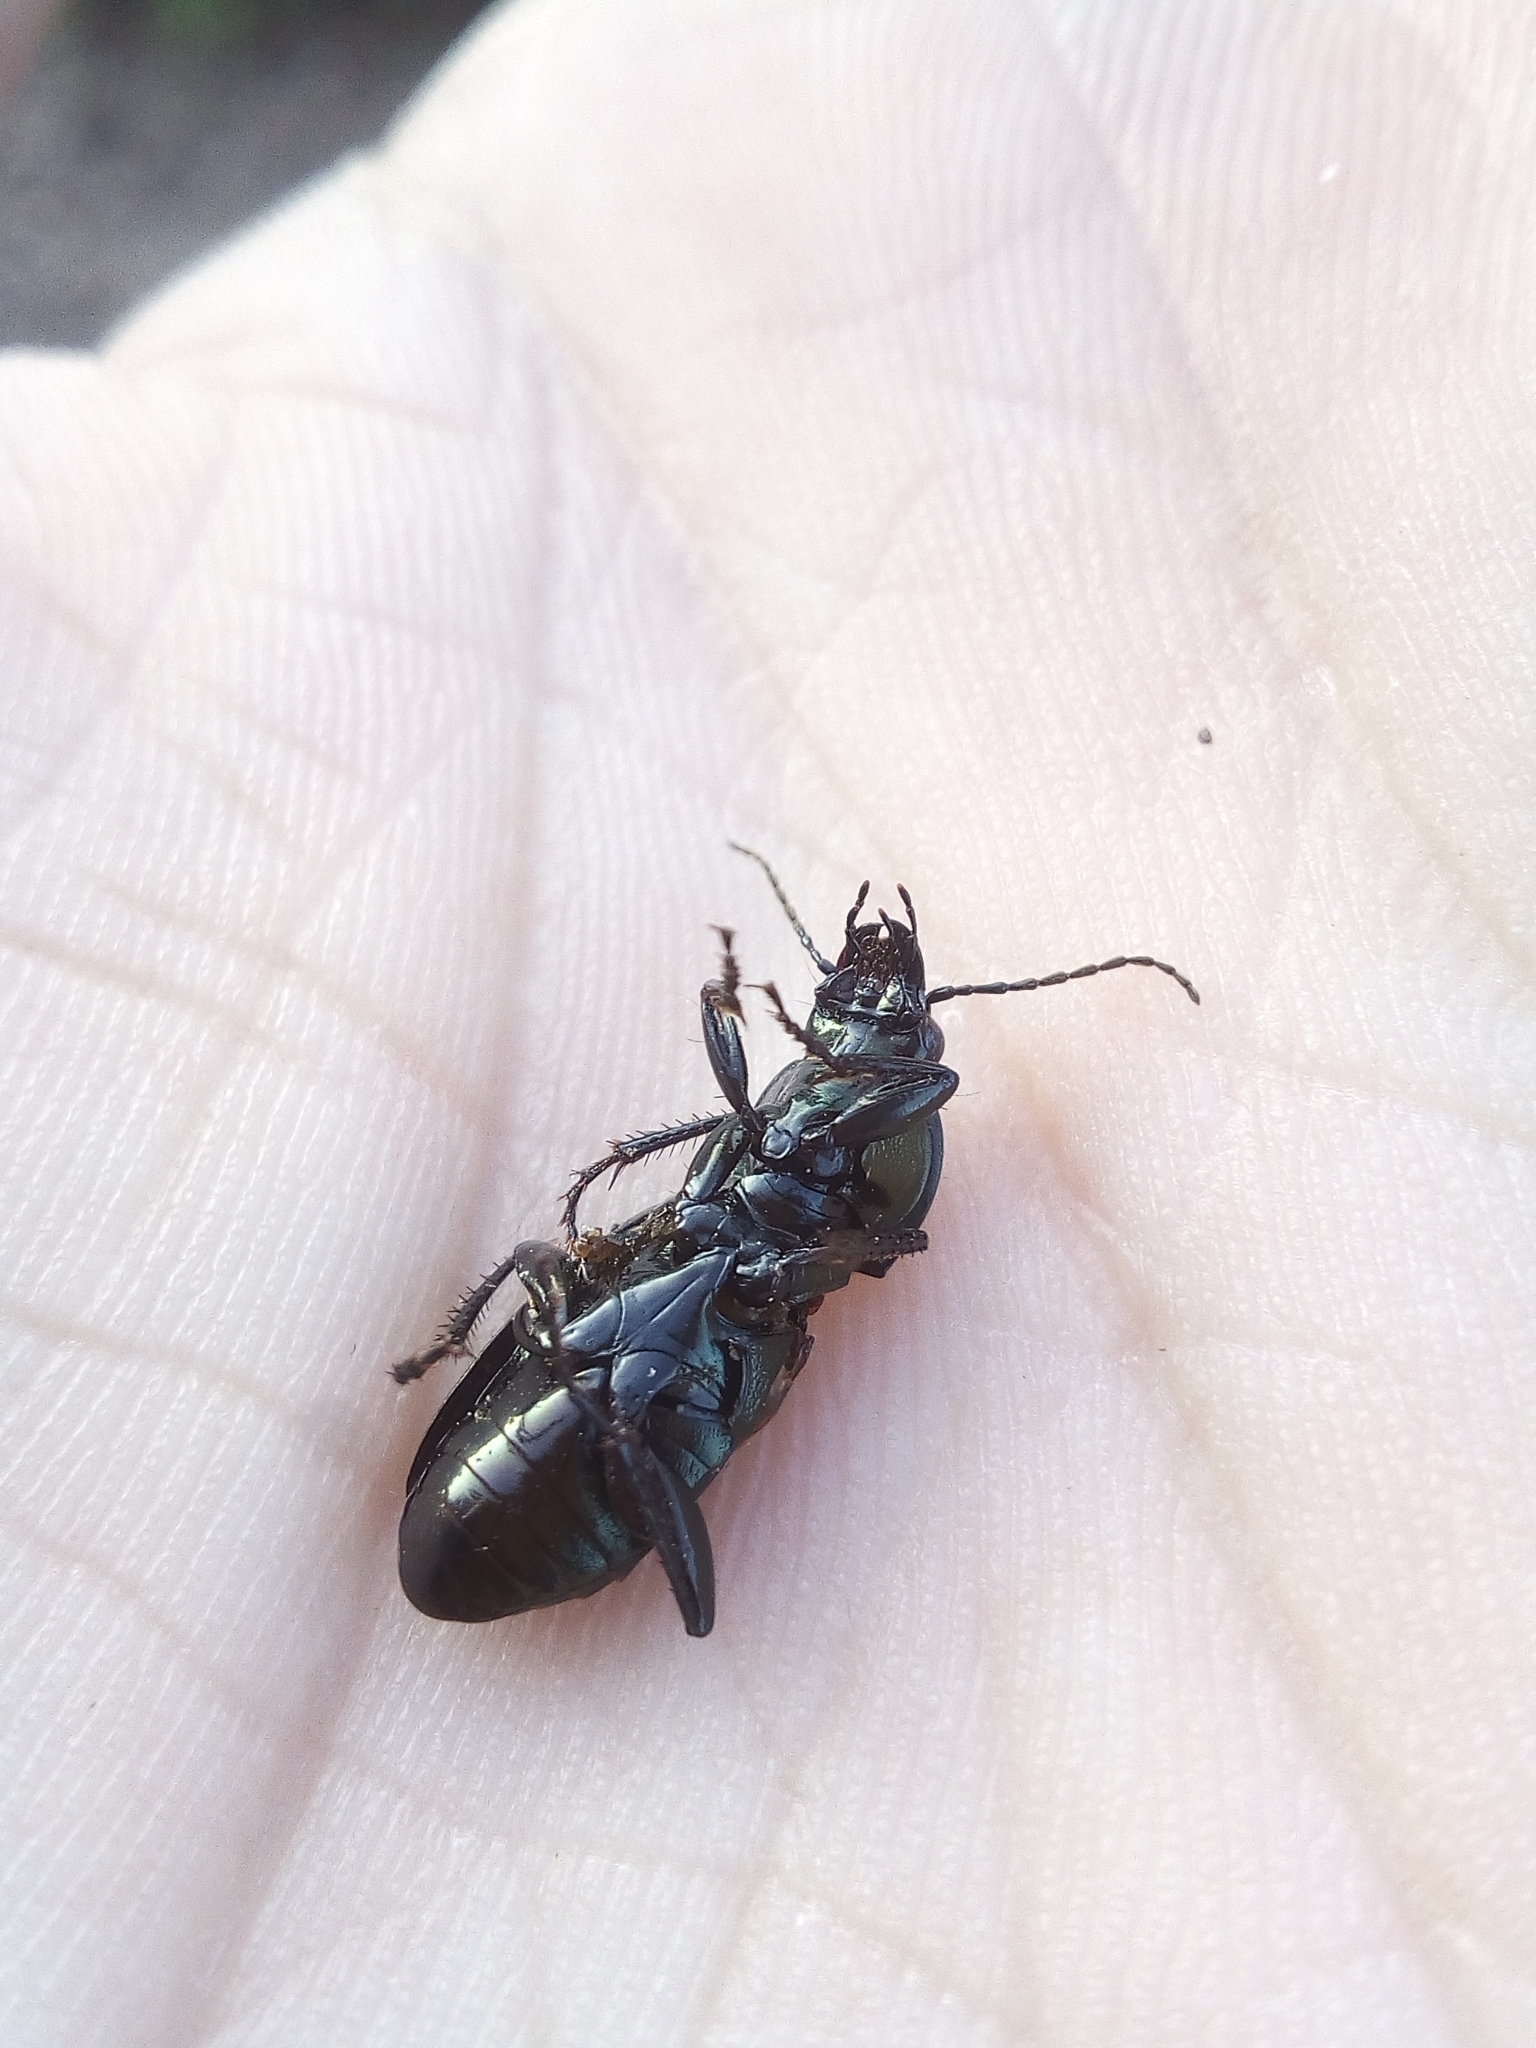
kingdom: Animalia
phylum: Arthropoda
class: Insecta
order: Coleoptera
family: Carabidae
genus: Poecilus
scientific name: Poecilus lepidus
